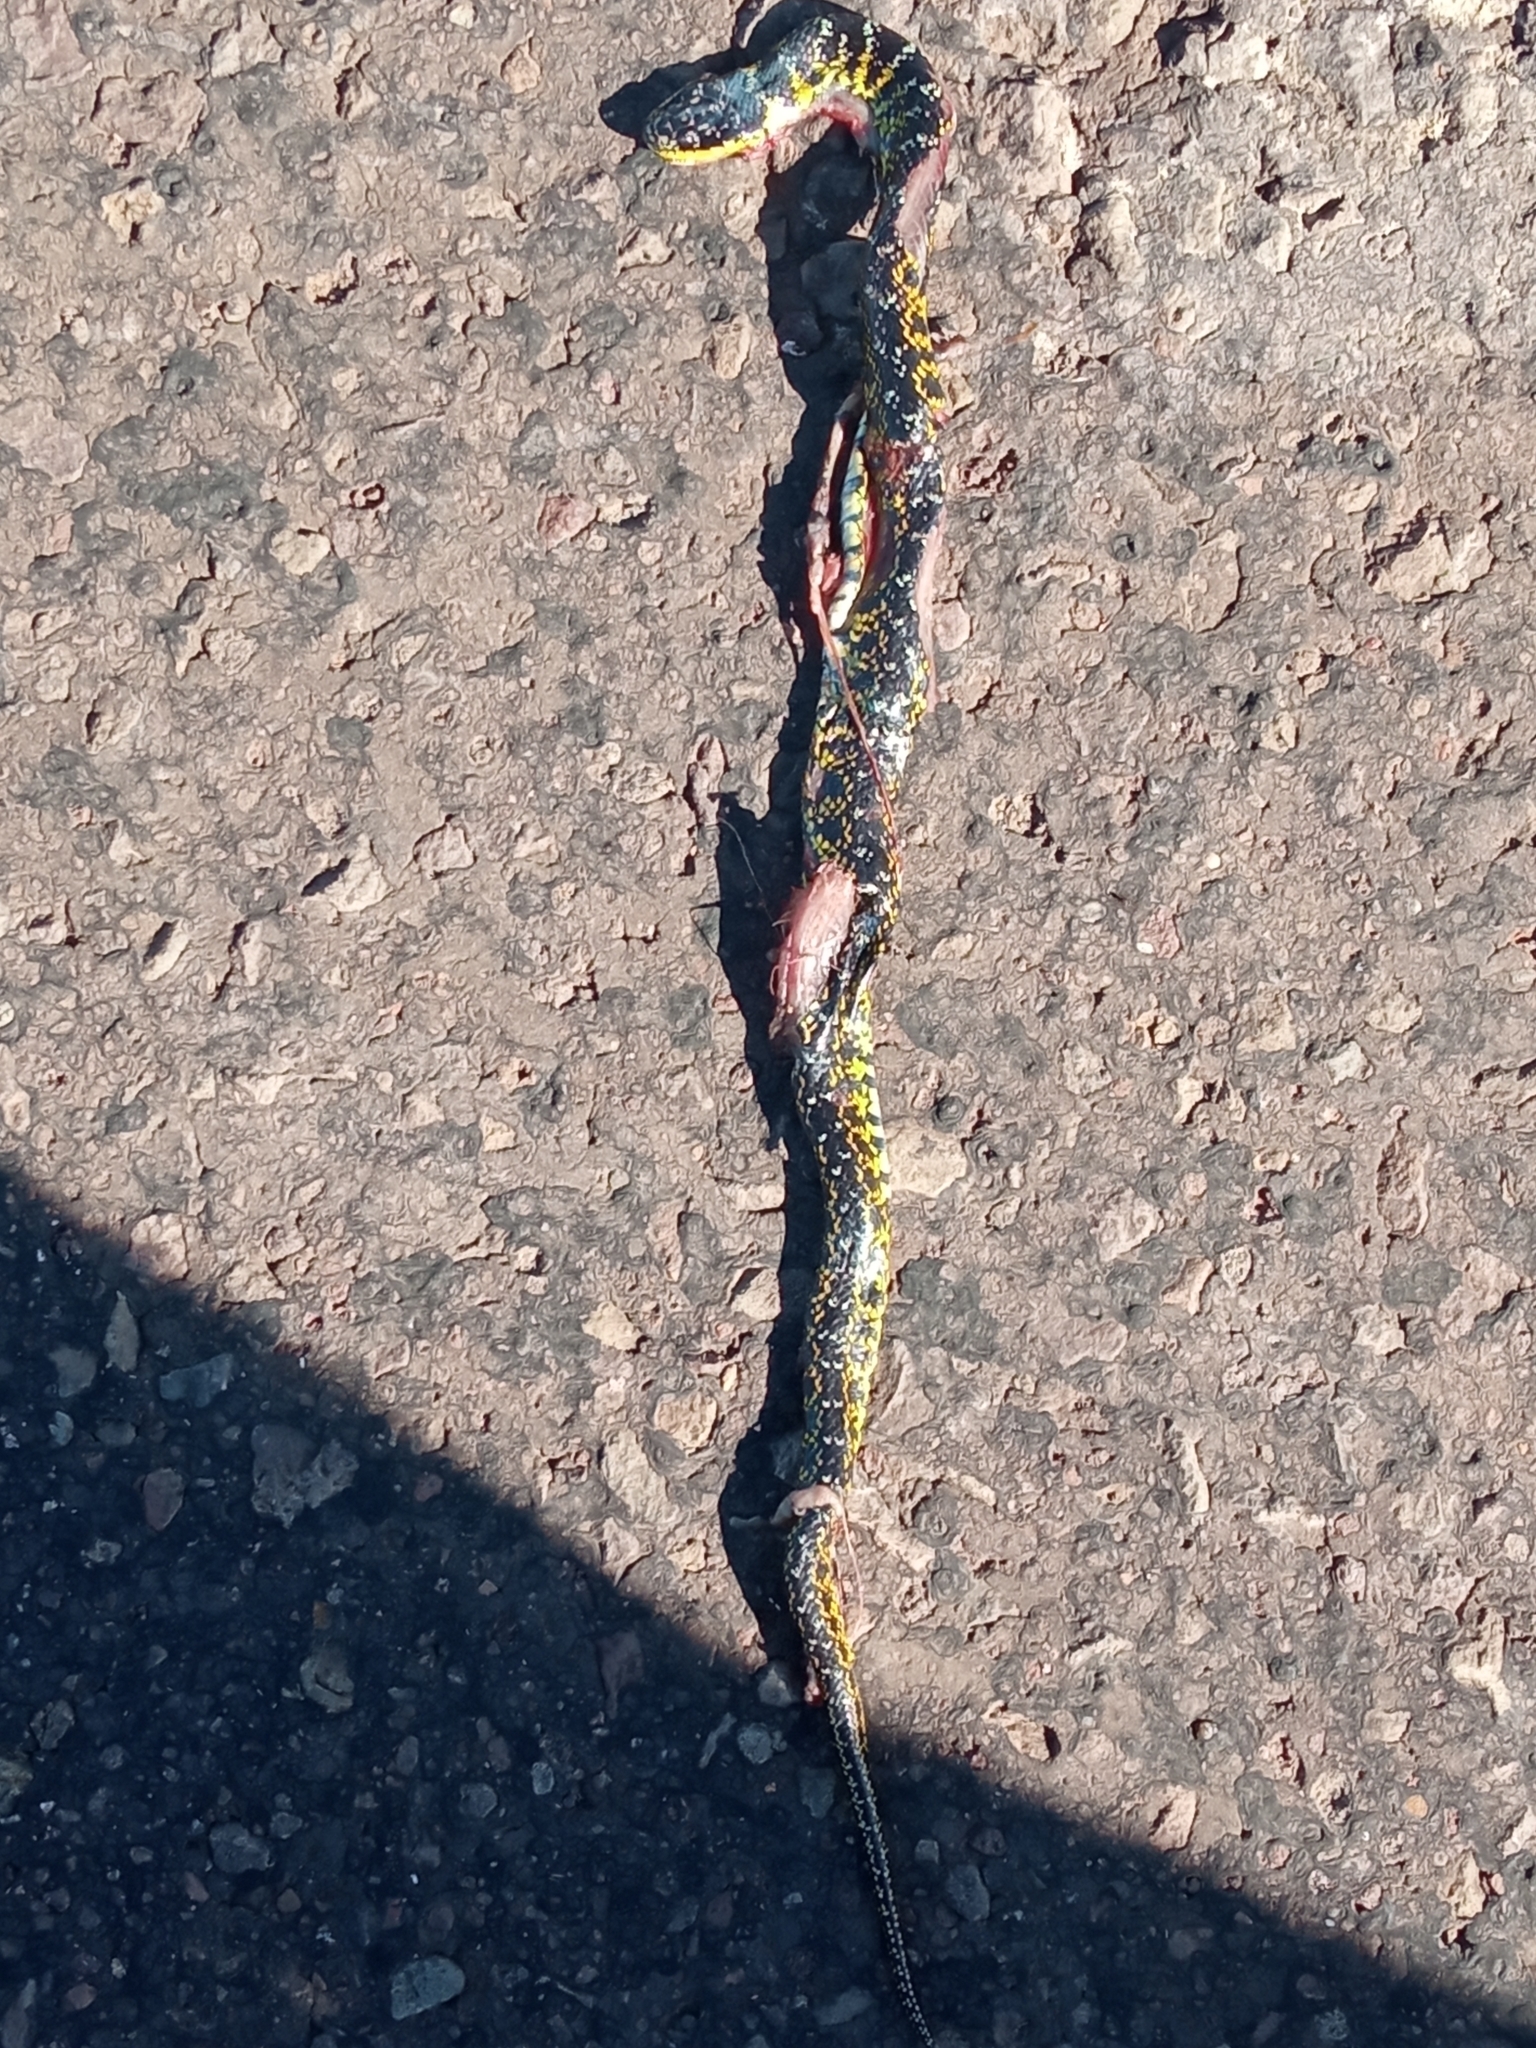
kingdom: Animalia
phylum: Chordata
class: Squamata
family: Colubridae
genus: Erythrolamprus
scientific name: Erythrolamprus poecilogyrus
